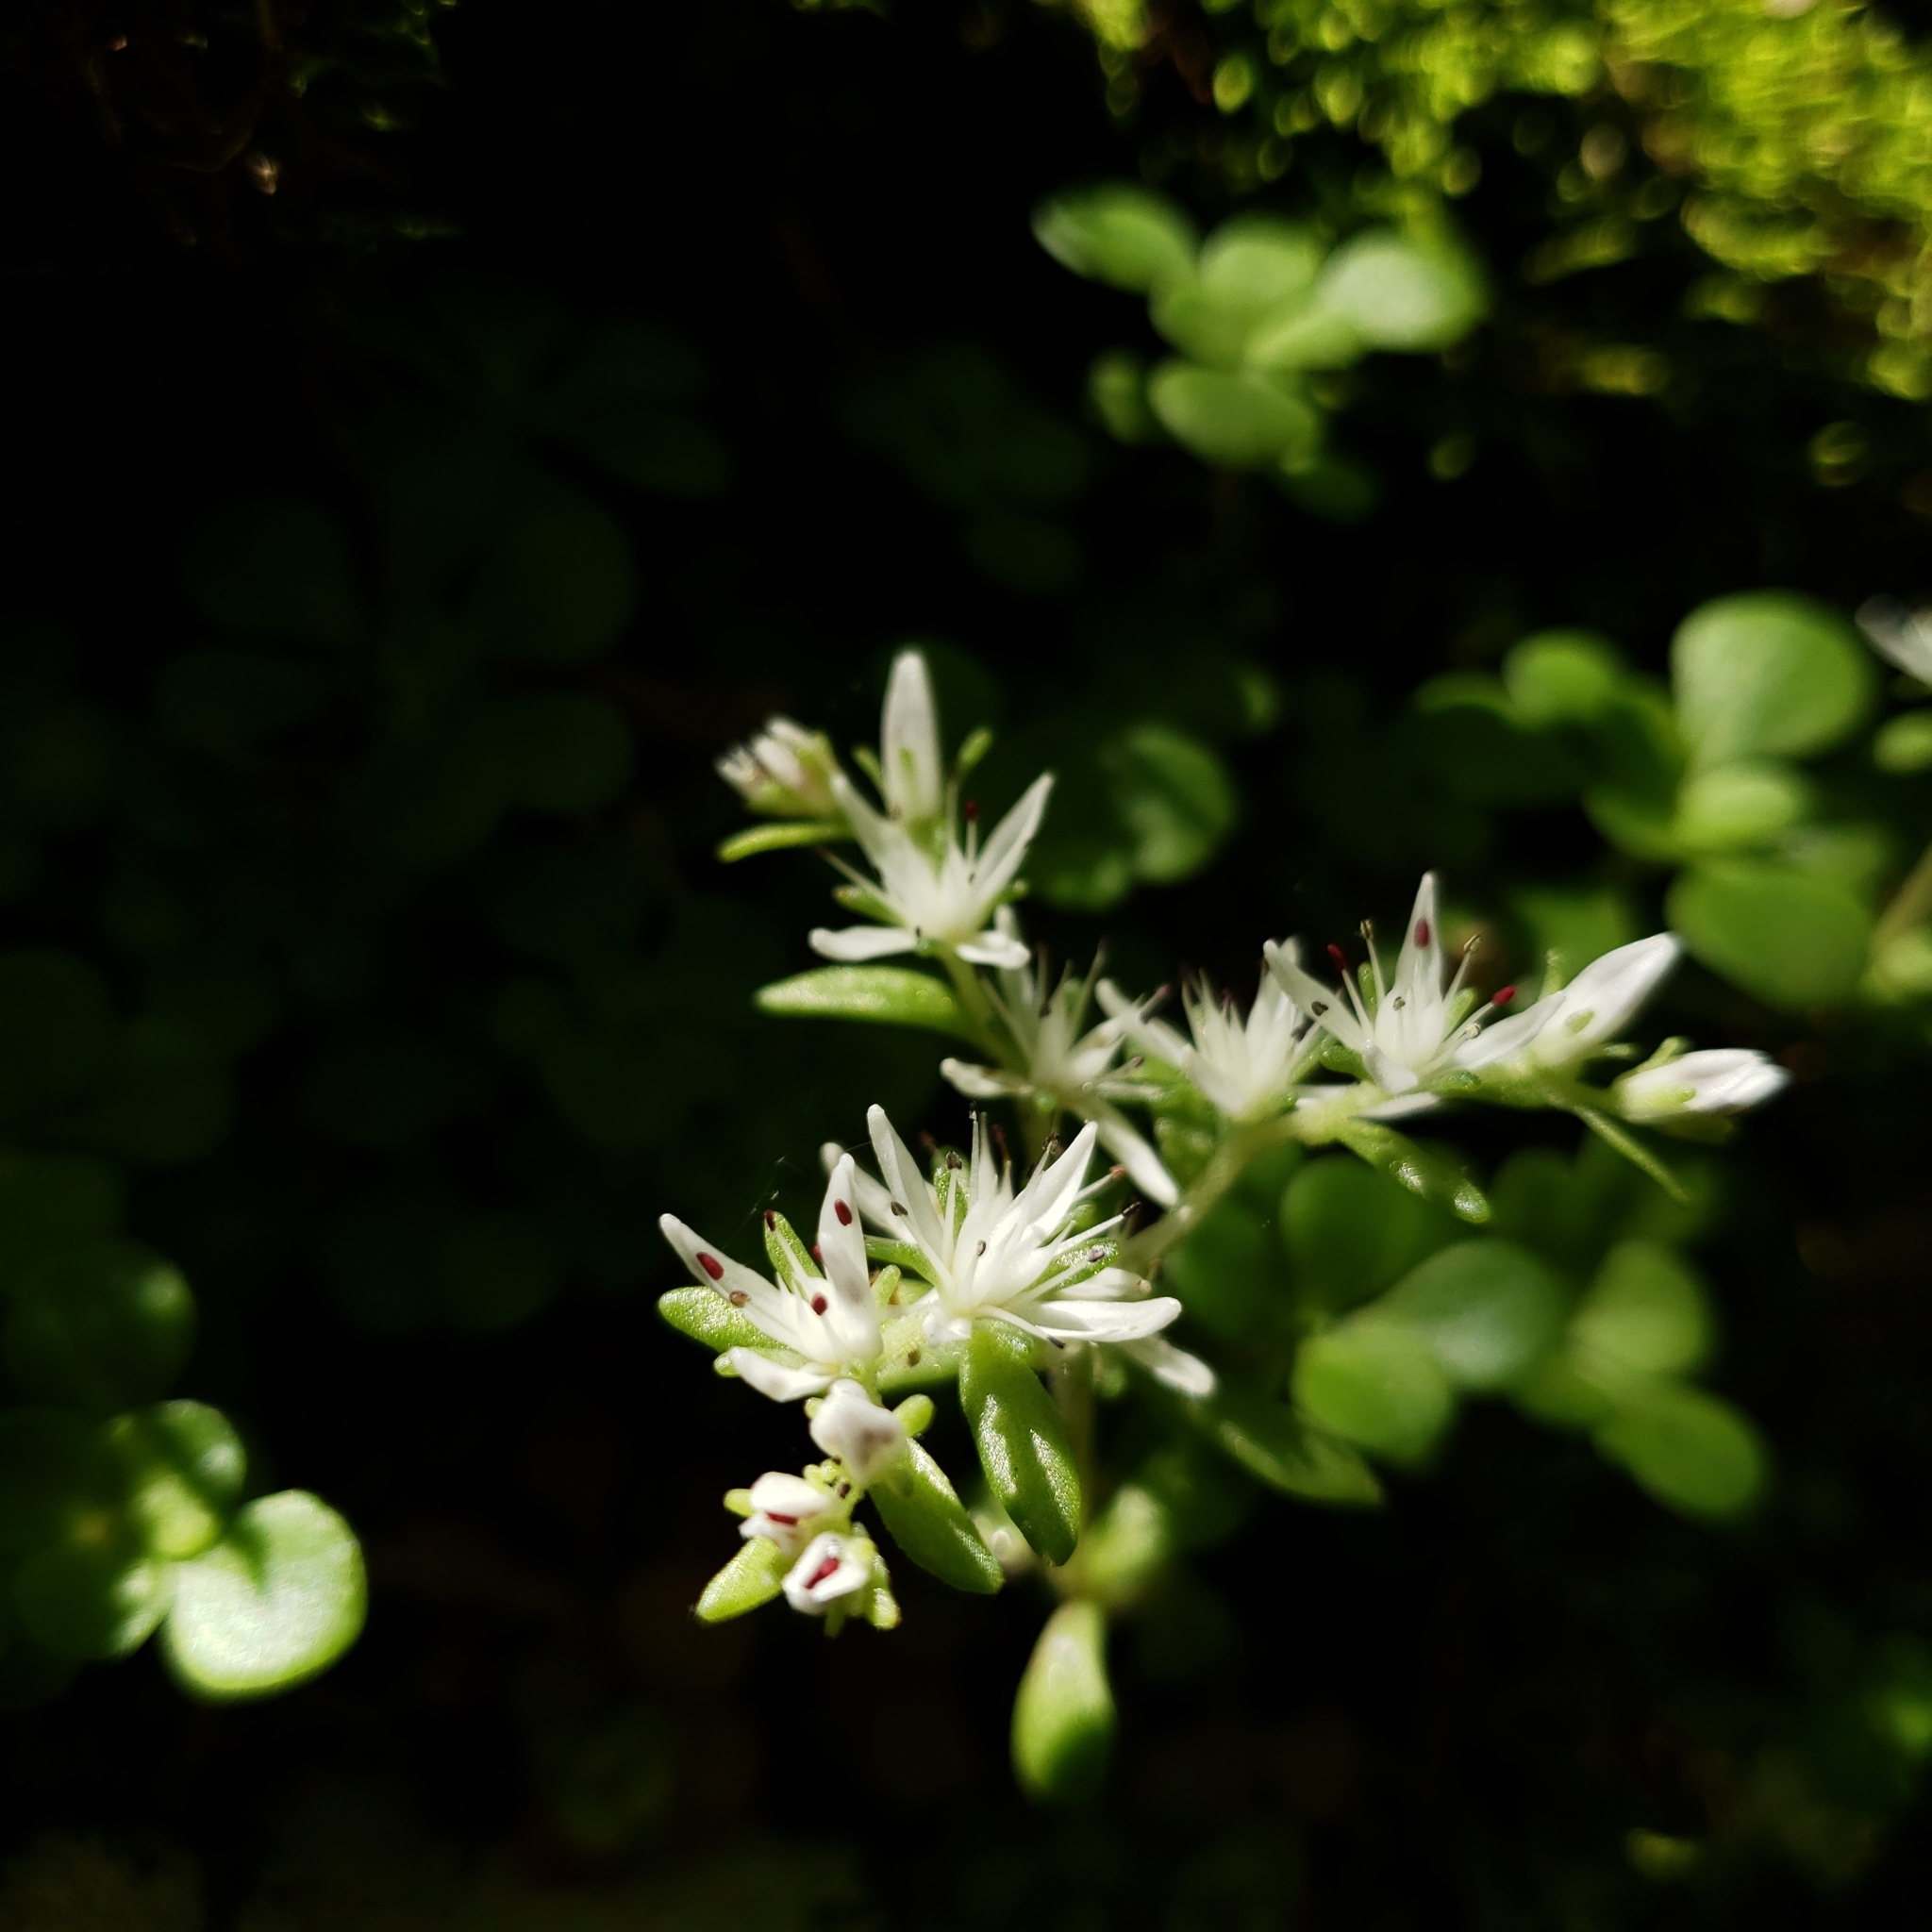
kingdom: Plantae
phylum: Tracheophyta
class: Magnoliopsida
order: Saxifragales
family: Crassulaceae
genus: Sedum
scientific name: Sedum ternatum
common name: Wild stonecrop
